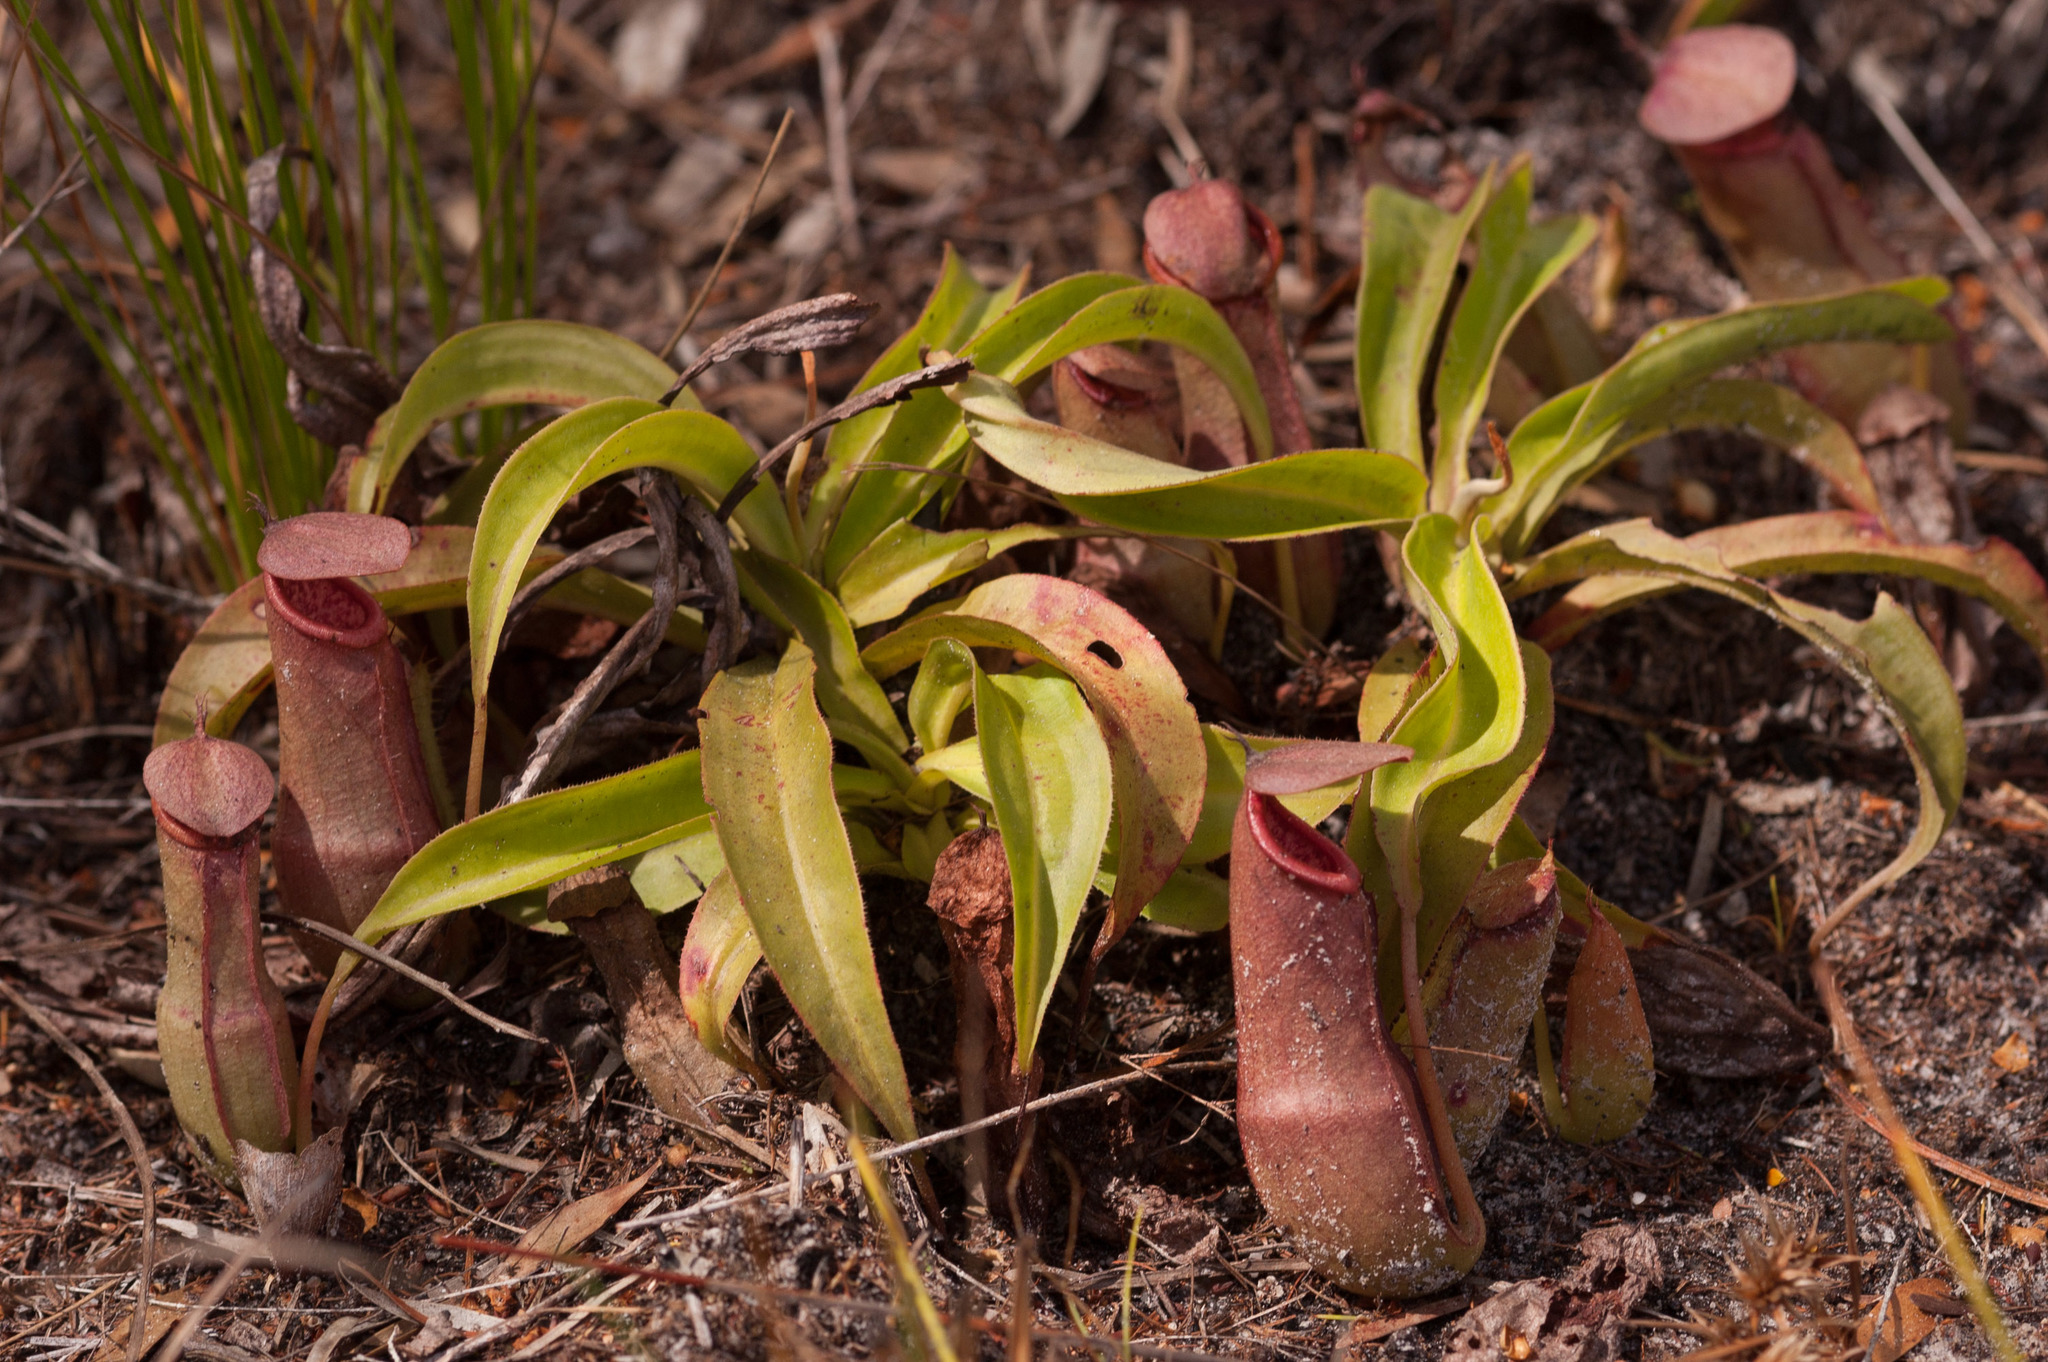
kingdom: Plantae
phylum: Tracheophyta
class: Magnoliopsida
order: Caryophyllales
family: Nepenthaceae
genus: Nepenthes
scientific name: Nepenthes mirabilis
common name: Tropical pitcherplant
